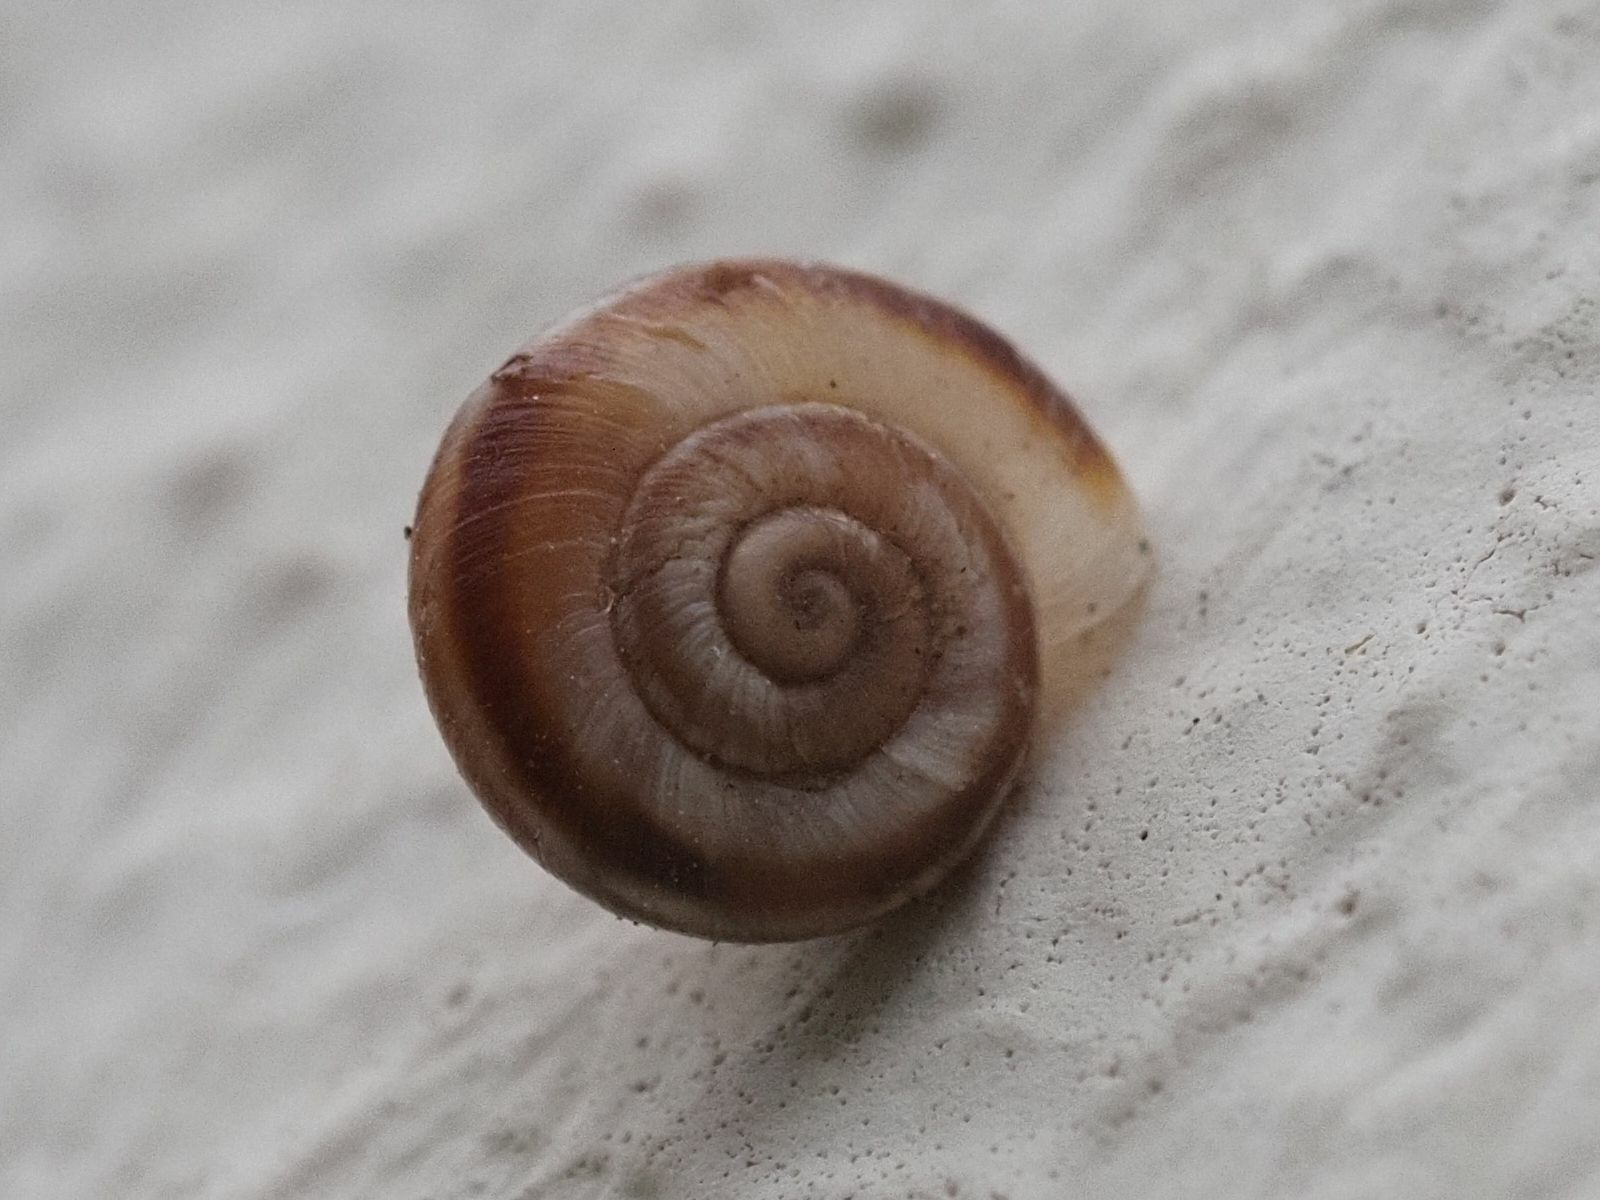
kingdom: Animalia
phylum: Mollusca
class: Gastropoda
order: Stylommatophora
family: Geomitridae
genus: Xerolenta
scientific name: Xerolenta obvia
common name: White heath snail
